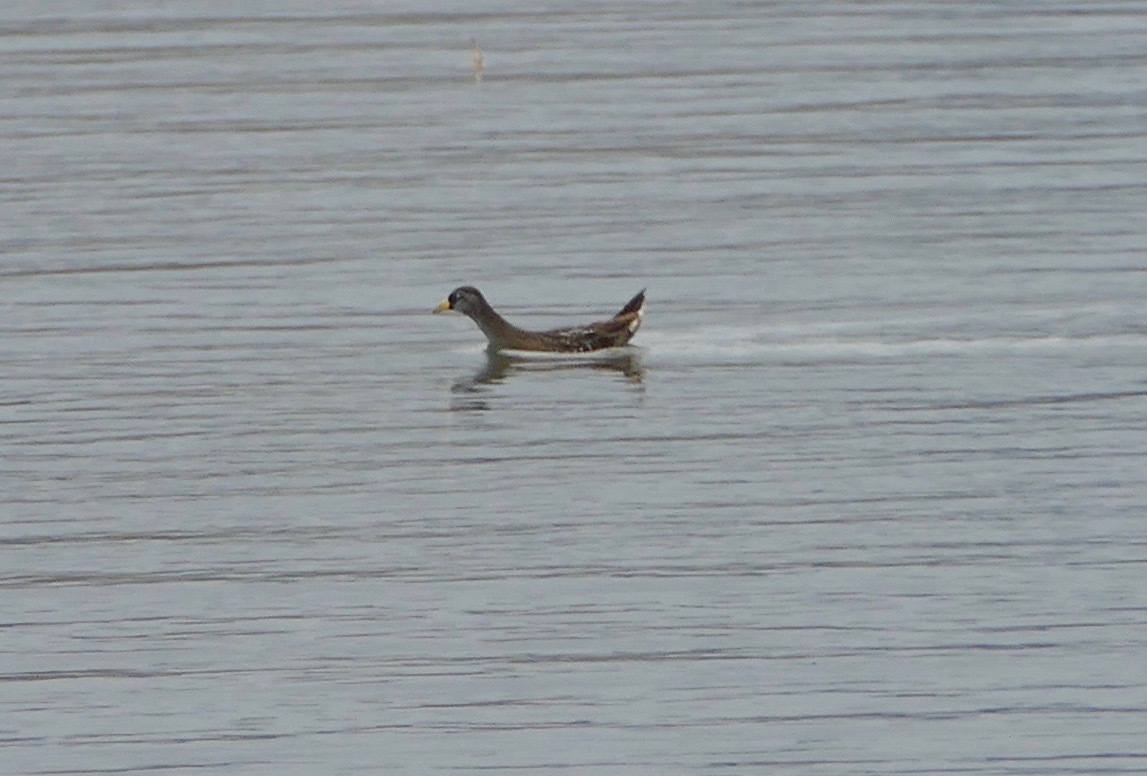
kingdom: Animalia
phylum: Chordata
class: Aves
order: Gruiformes
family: Rallidae
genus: Porzana
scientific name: Porzana carolina
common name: Sora
